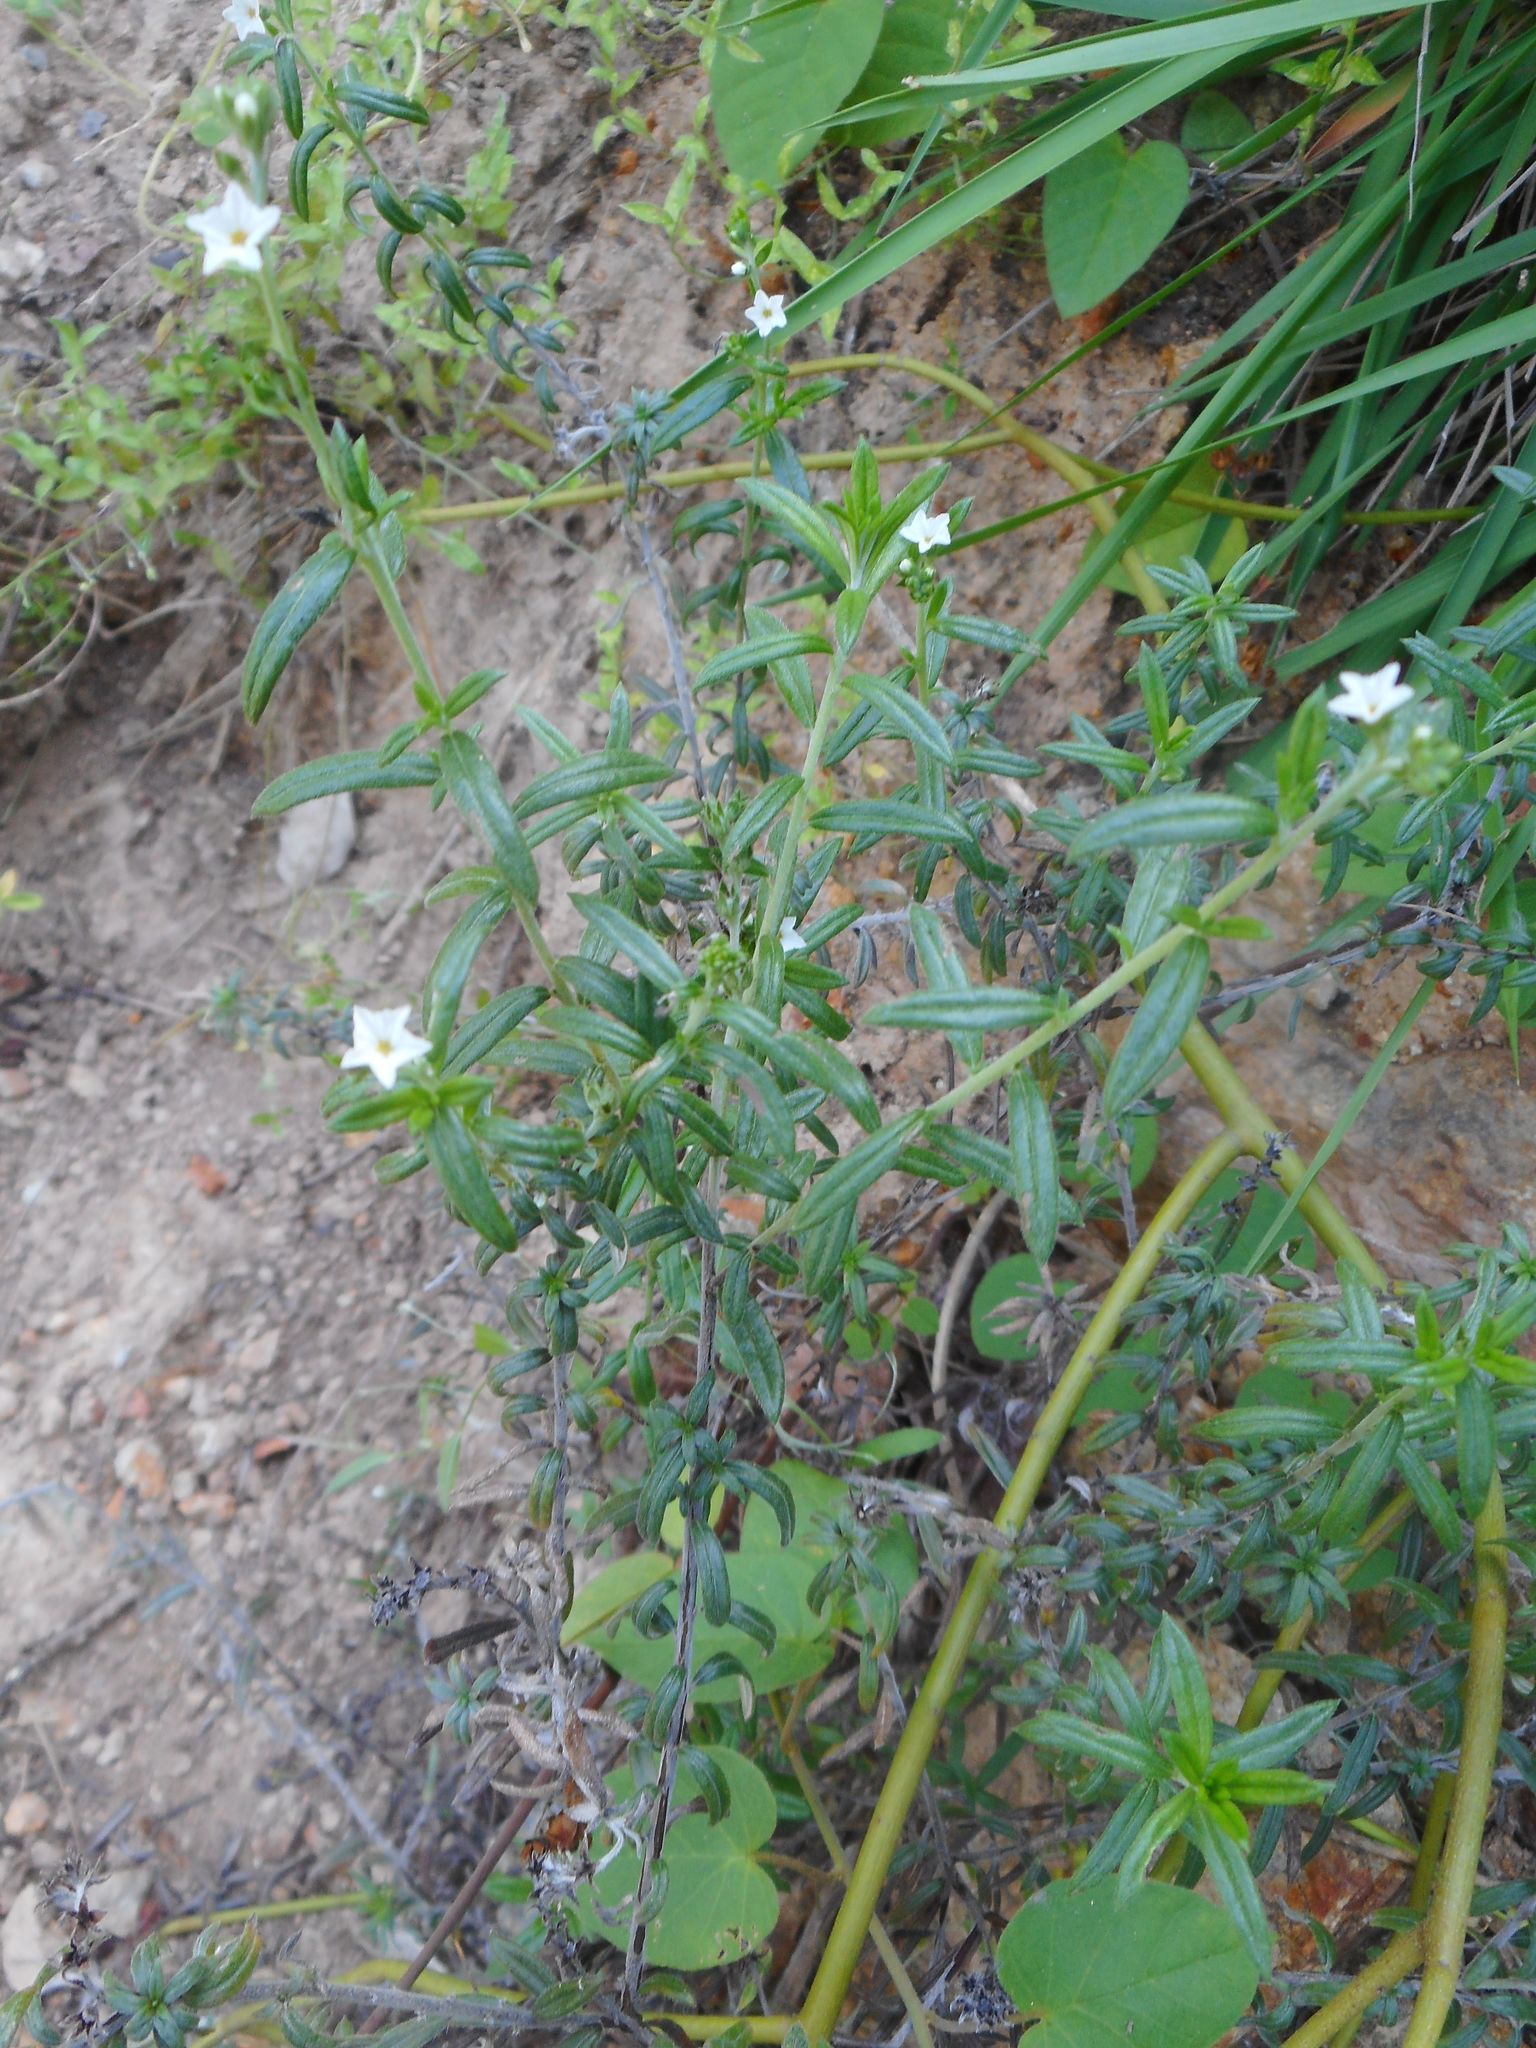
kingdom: Plantae
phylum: Tracheophyta
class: Magnoliopsida
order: Boraginales
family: Heliotropiaceae
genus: Euploca
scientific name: Euploca strigosa
